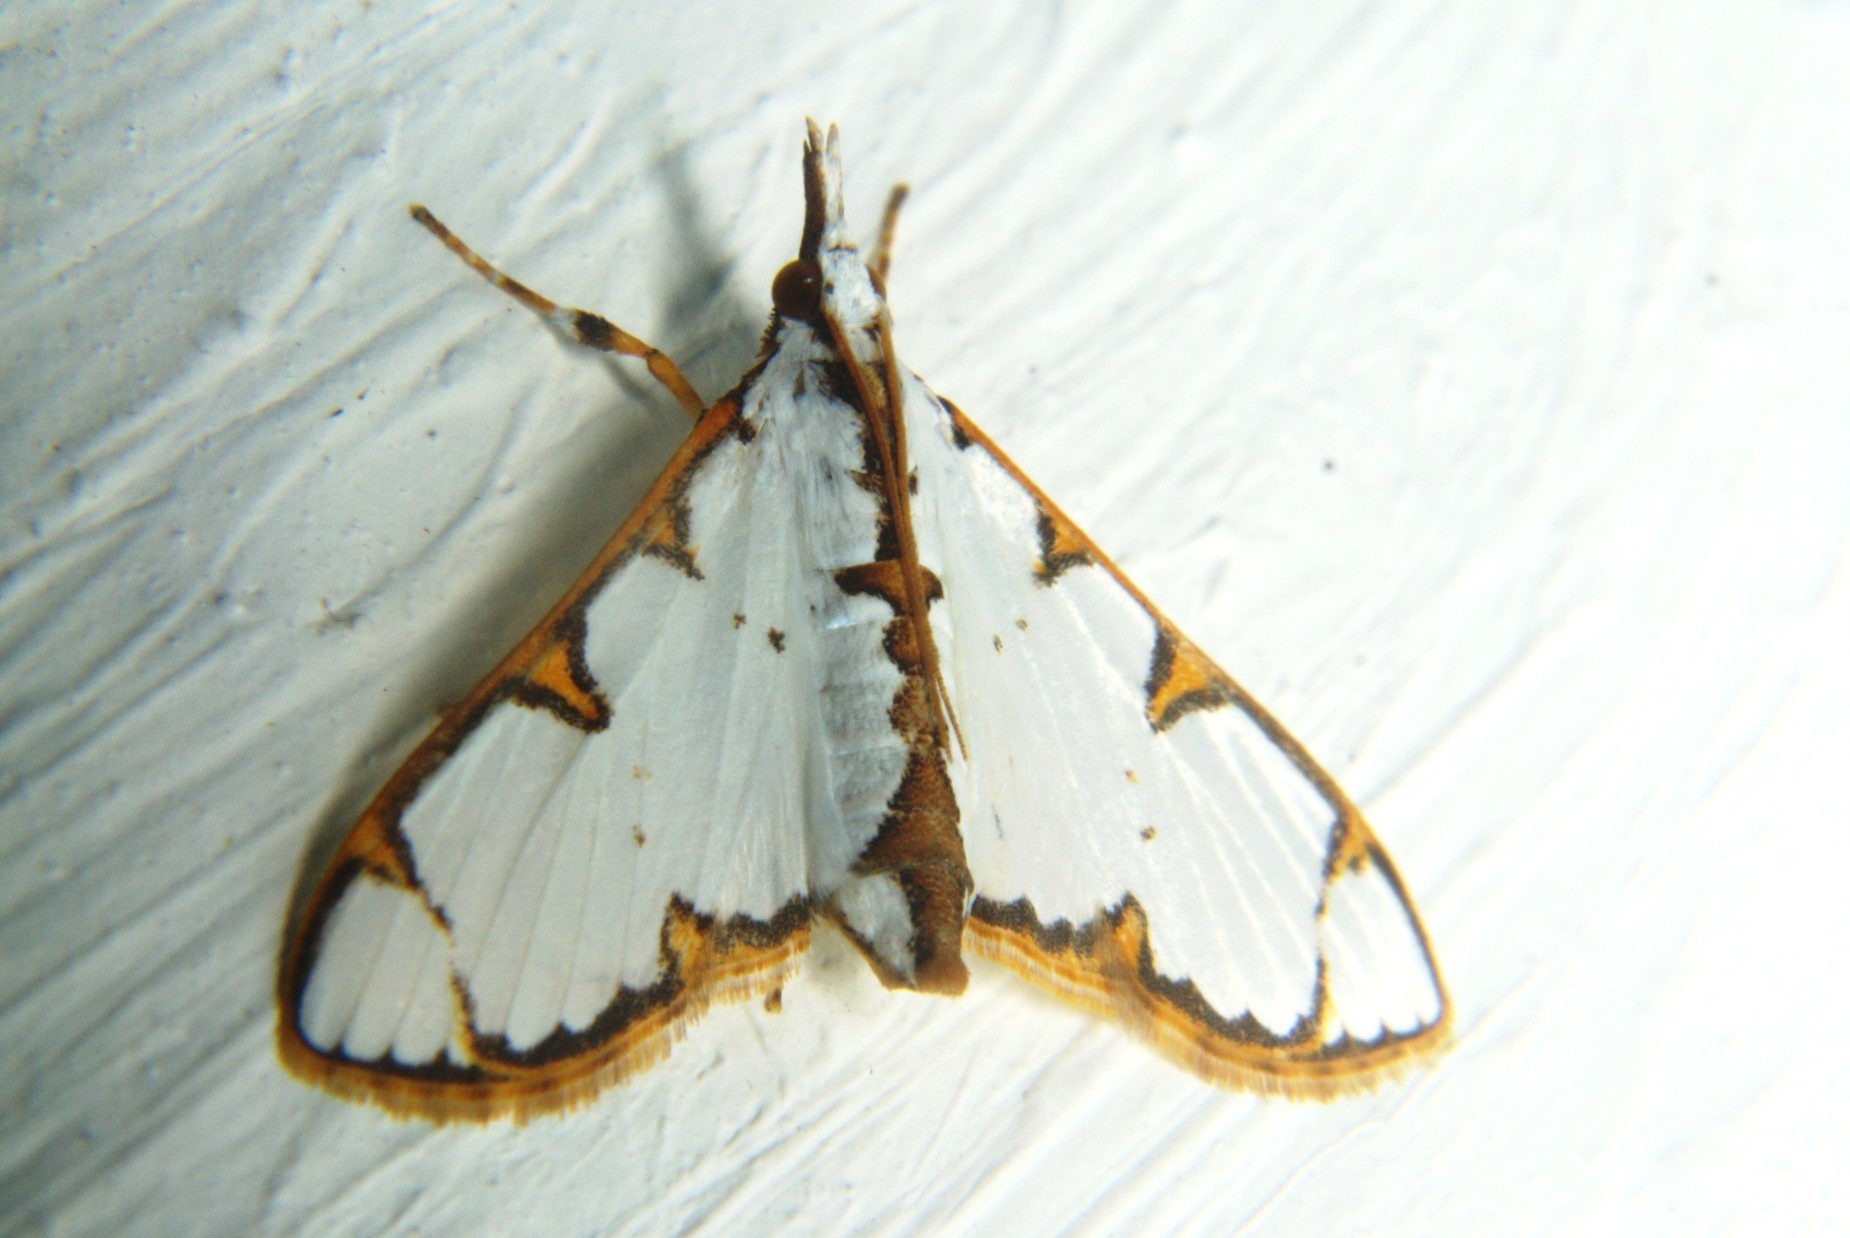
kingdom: Animalia
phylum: Arthropoda
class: Insecta
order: Lepidoptera
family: Crambidae
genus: Cirrhochrista
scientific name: Cirrhochrista brizoalis
